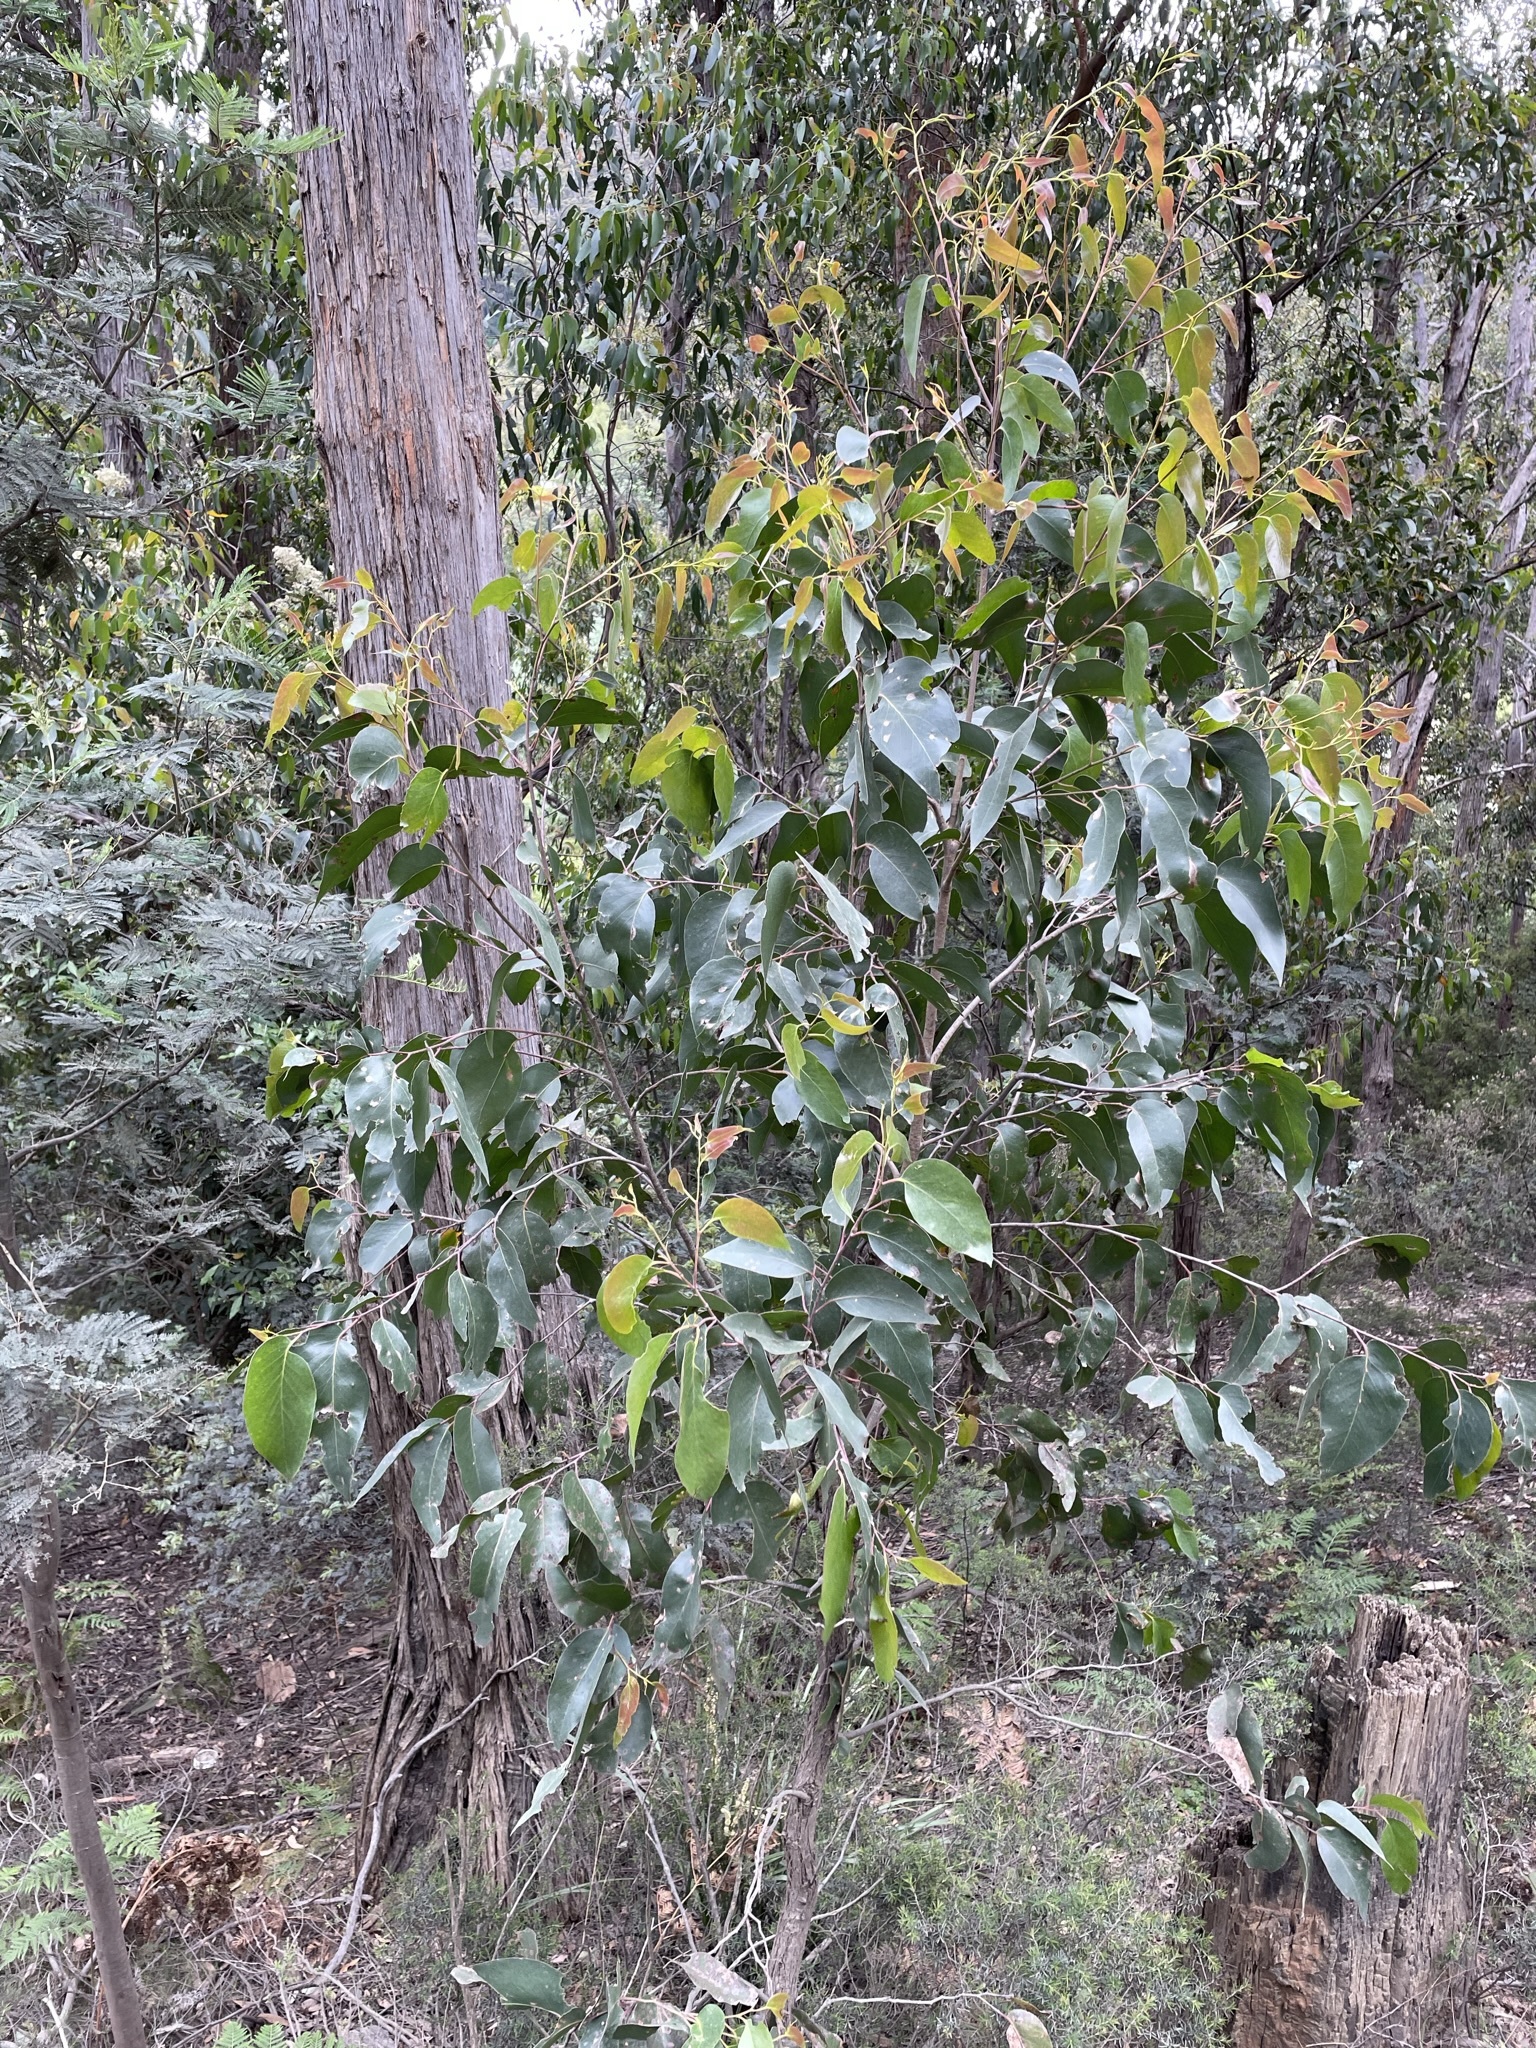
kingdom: Plantae
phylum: Tracheophyta
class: Magnoliopsida
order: Myrtales
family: Myrtaceae
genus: Eucalyptus
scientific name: Eucalyptus obliqua
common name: Messmate stringybark
